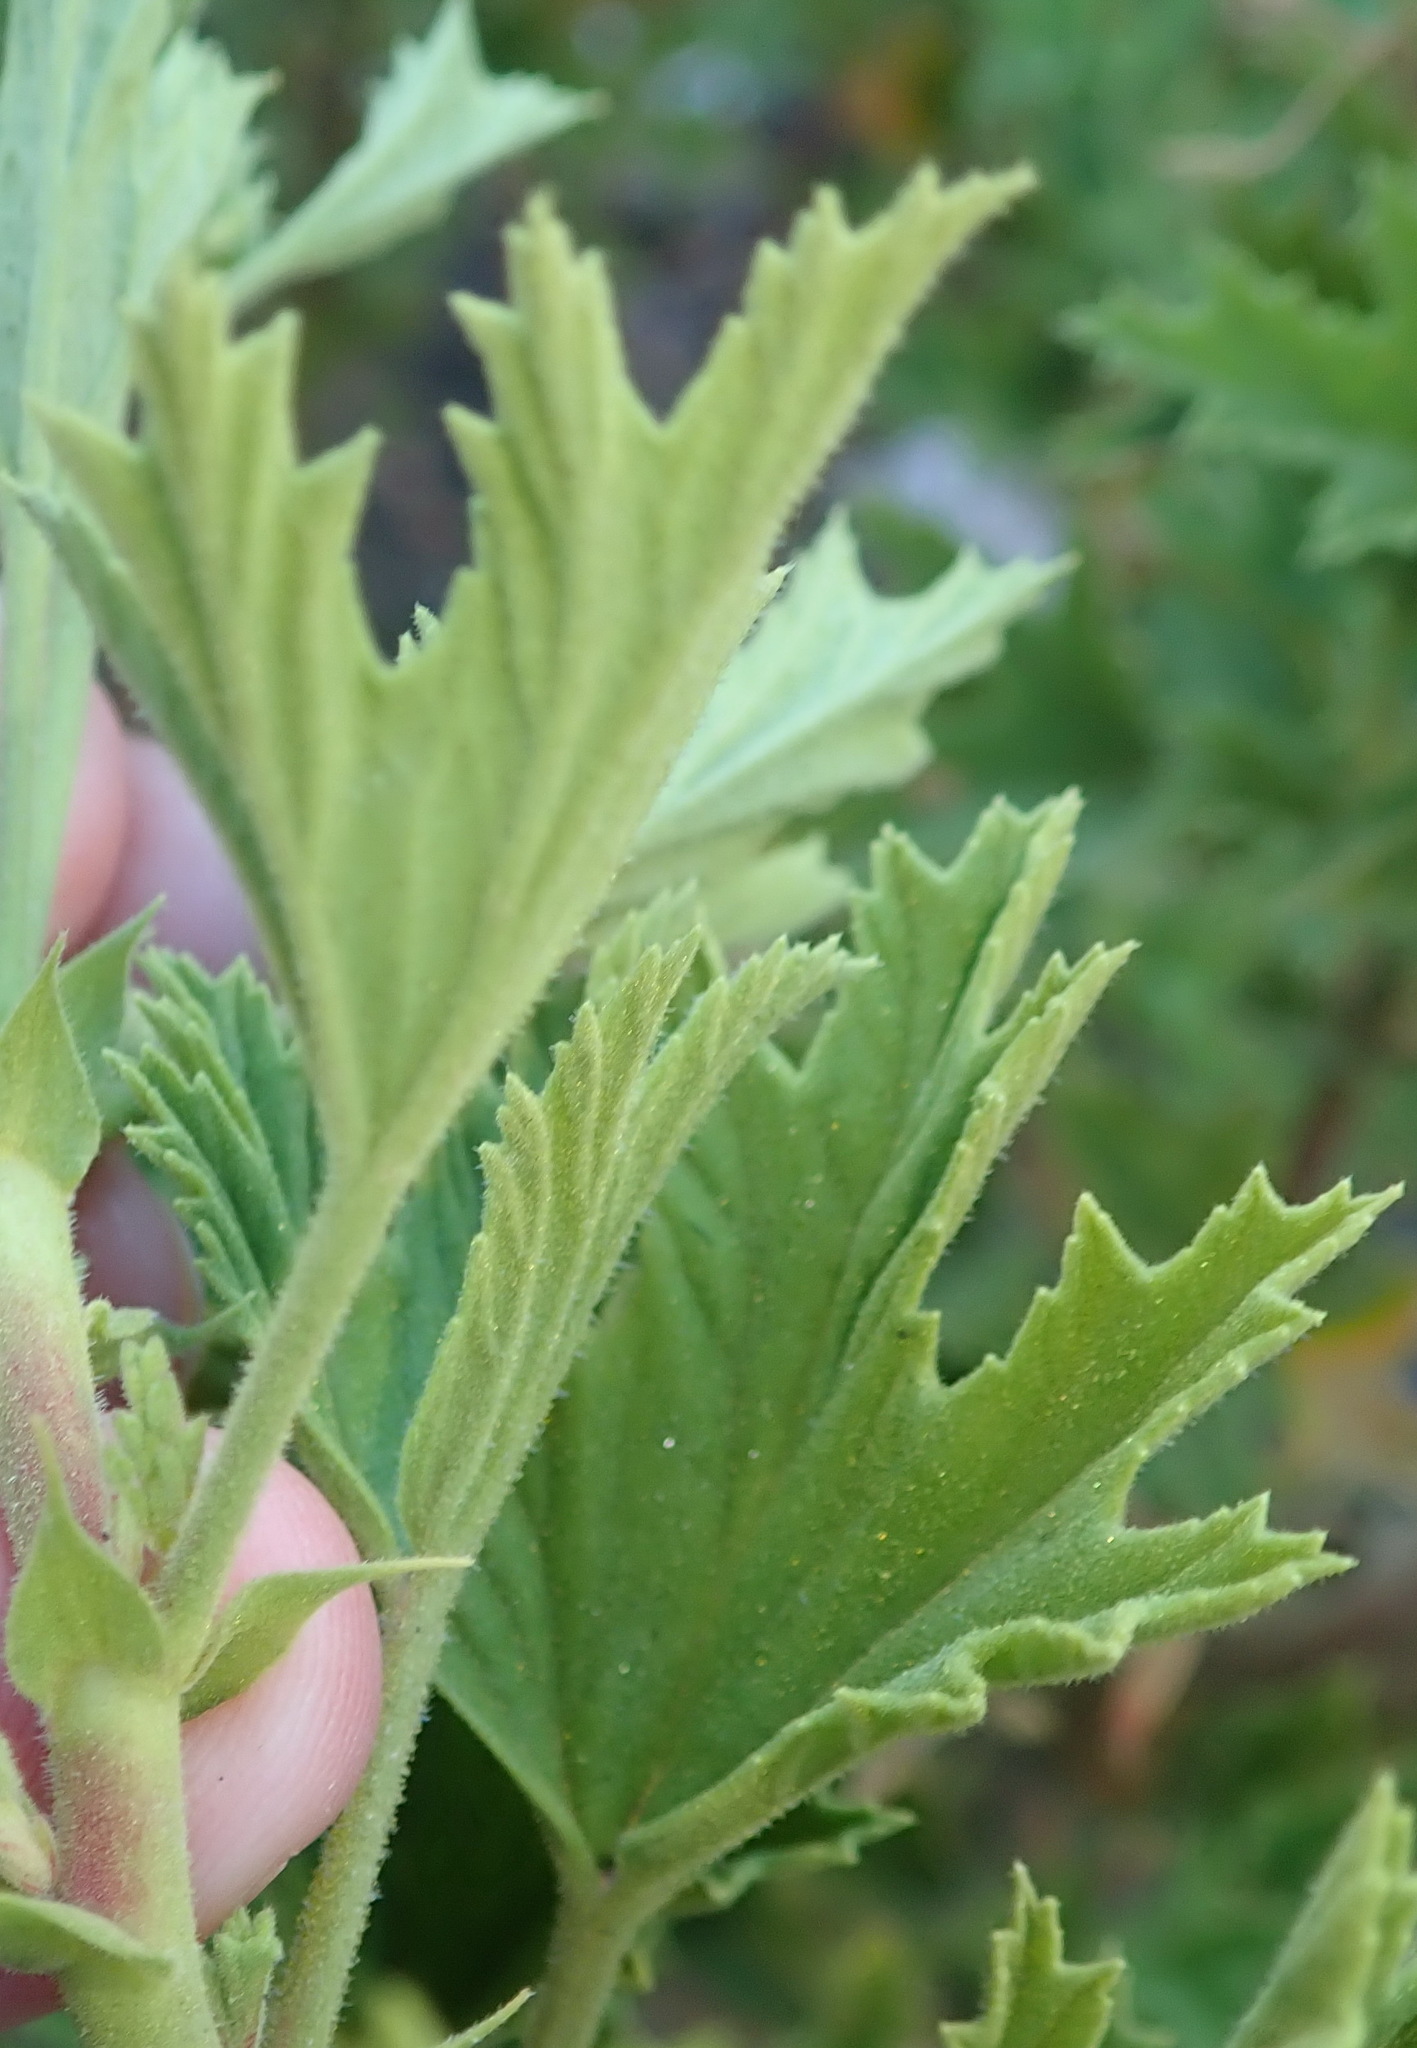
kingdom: Plantae
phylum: Tracheophyta
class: Magnoliopsida
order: Geraniales
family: Geraniaceae
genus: Pelargonium
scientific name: Pelargonium ribifolium
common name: Currant-leaf pelargonium
